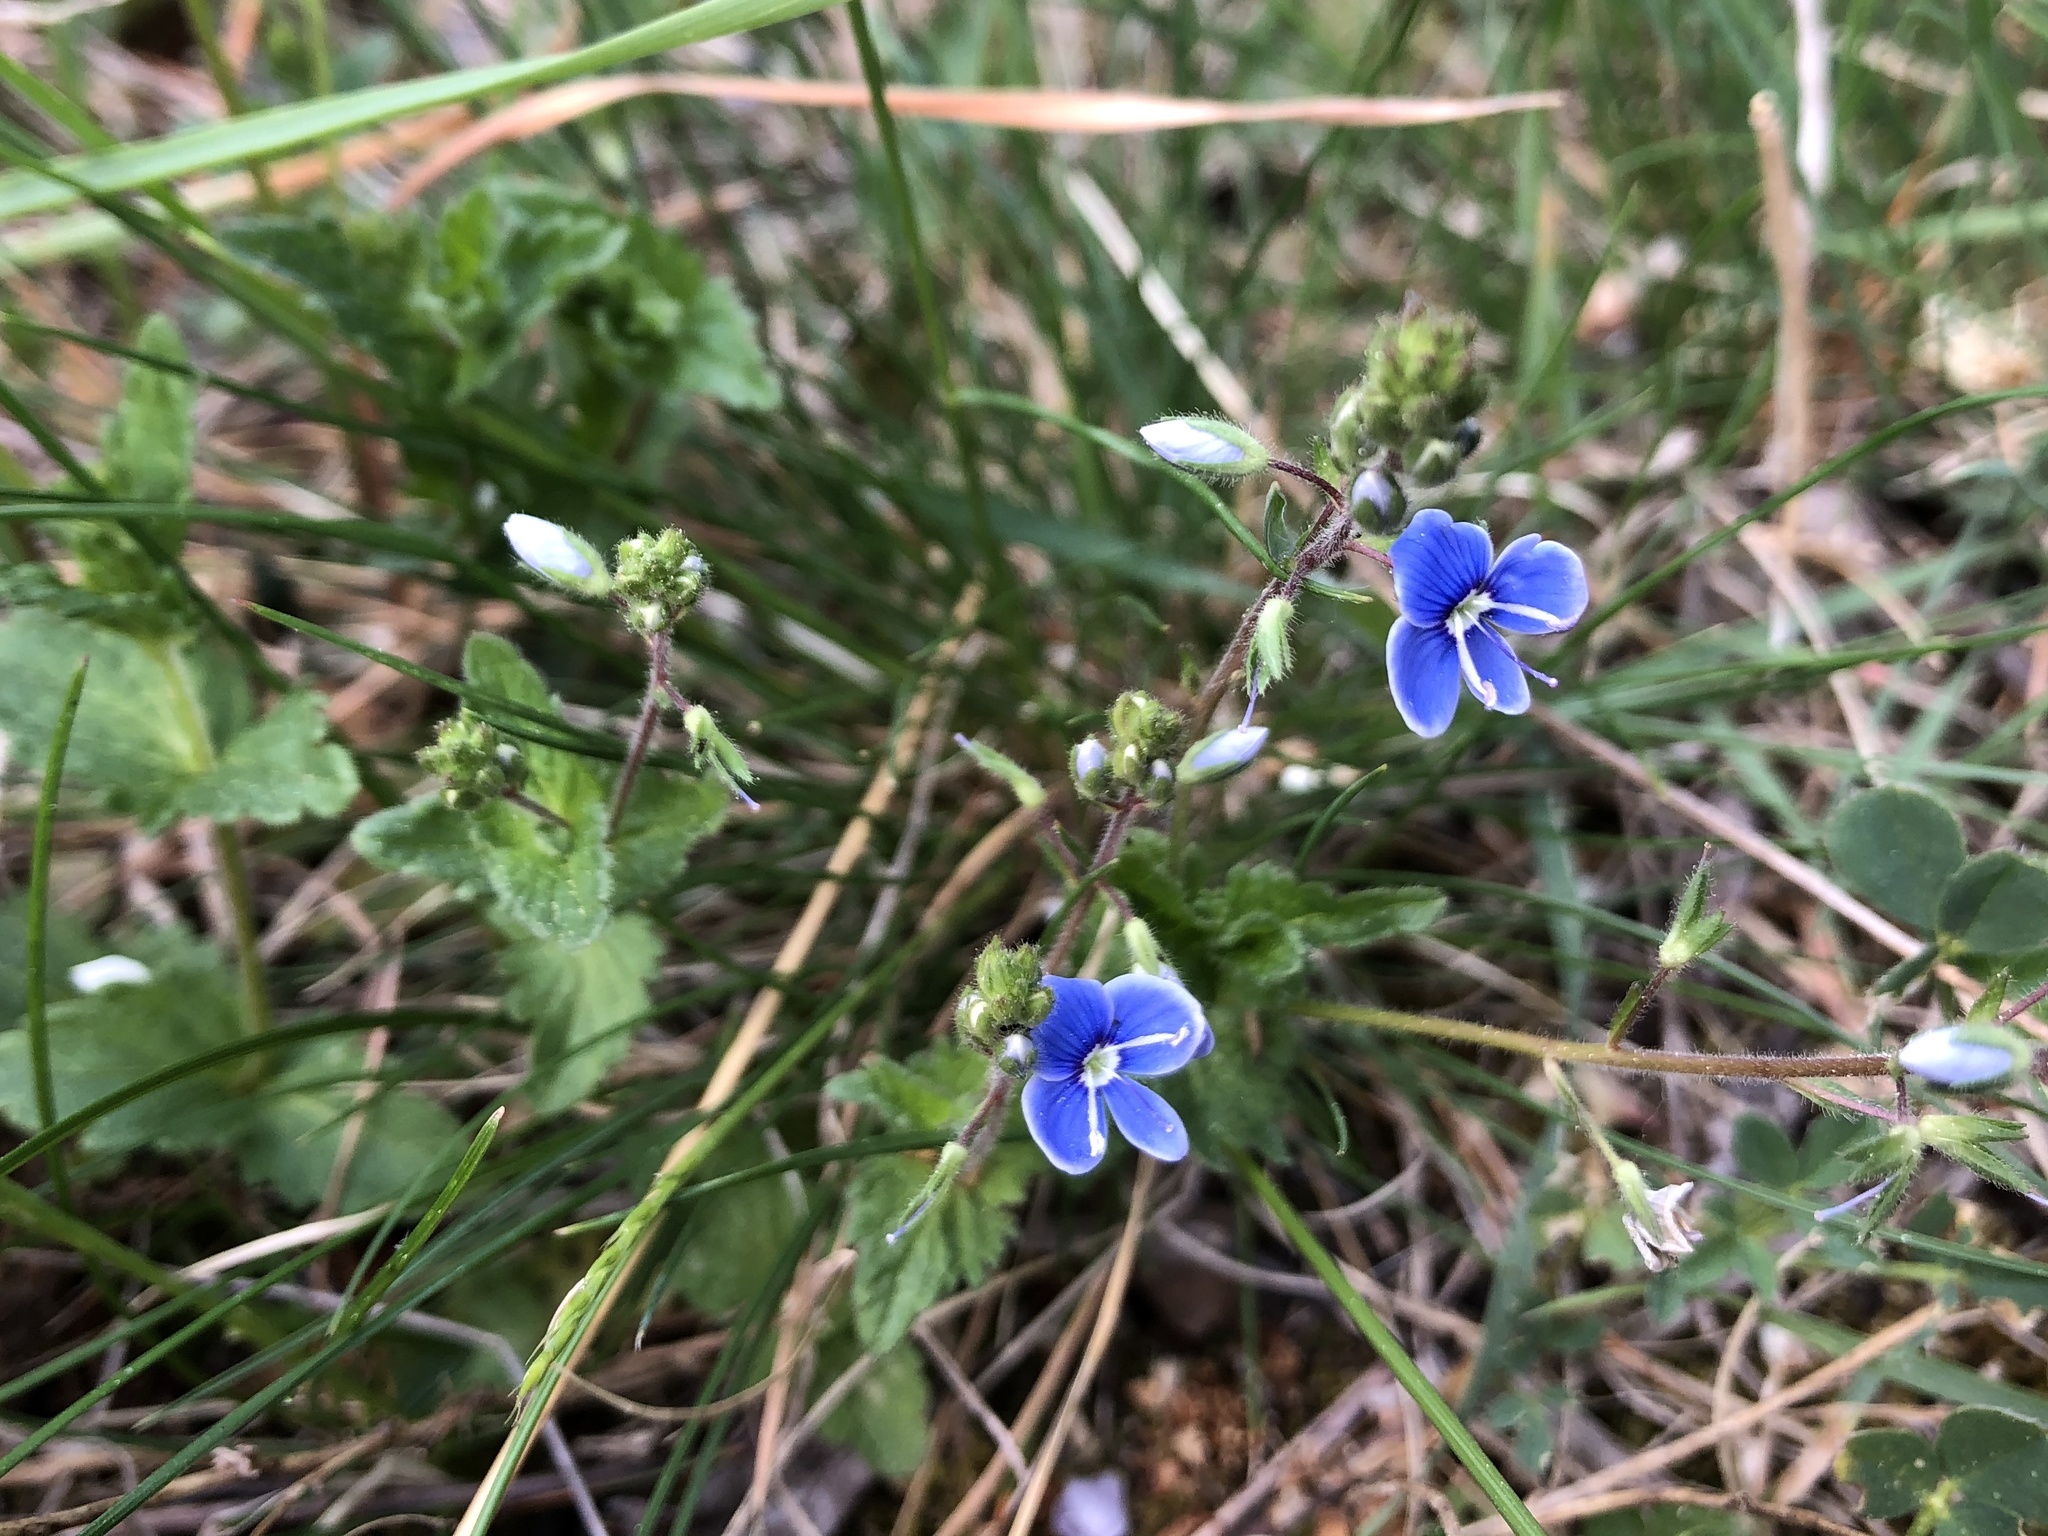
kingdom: Plantae
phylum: Tracheophyta
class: Magnoliopsida
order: Lamiales
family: Plantaginaceae
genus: Veronica
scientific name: Veronica chamaedrys
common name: Germander speedwell
